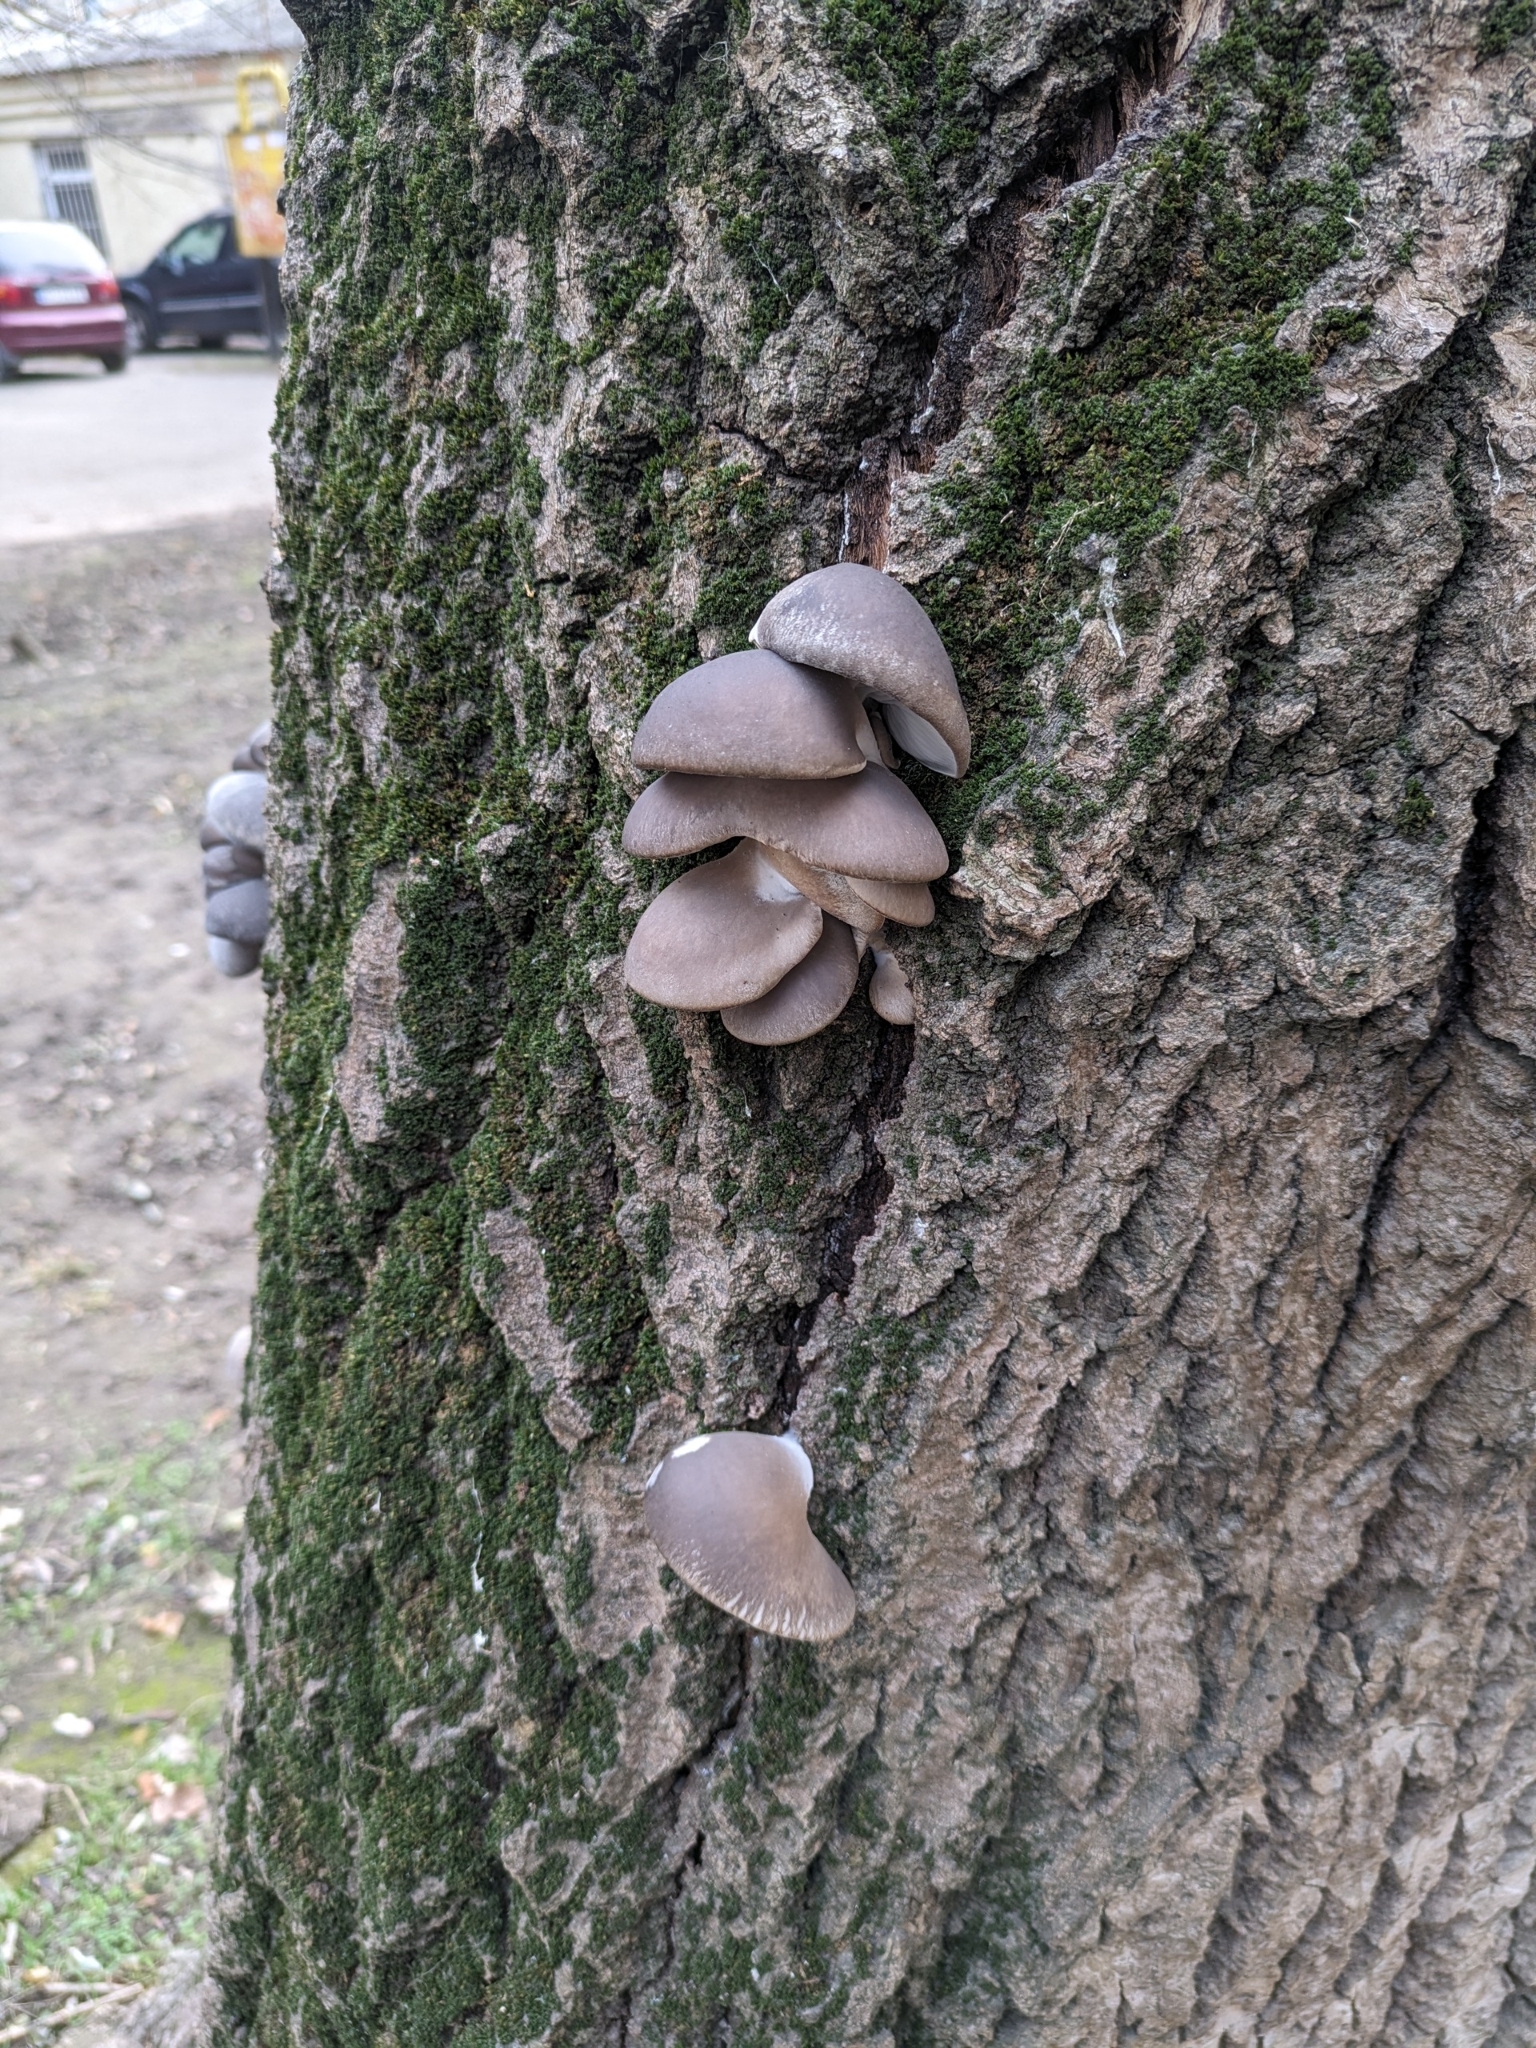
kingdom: Fungi
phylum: Basidiomycota
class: Agaricomycetes
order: Agaricales
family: Pleurotaceae
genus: Pleurotus
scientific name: Pleurotus ostreatus
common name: Oyster mushroom
